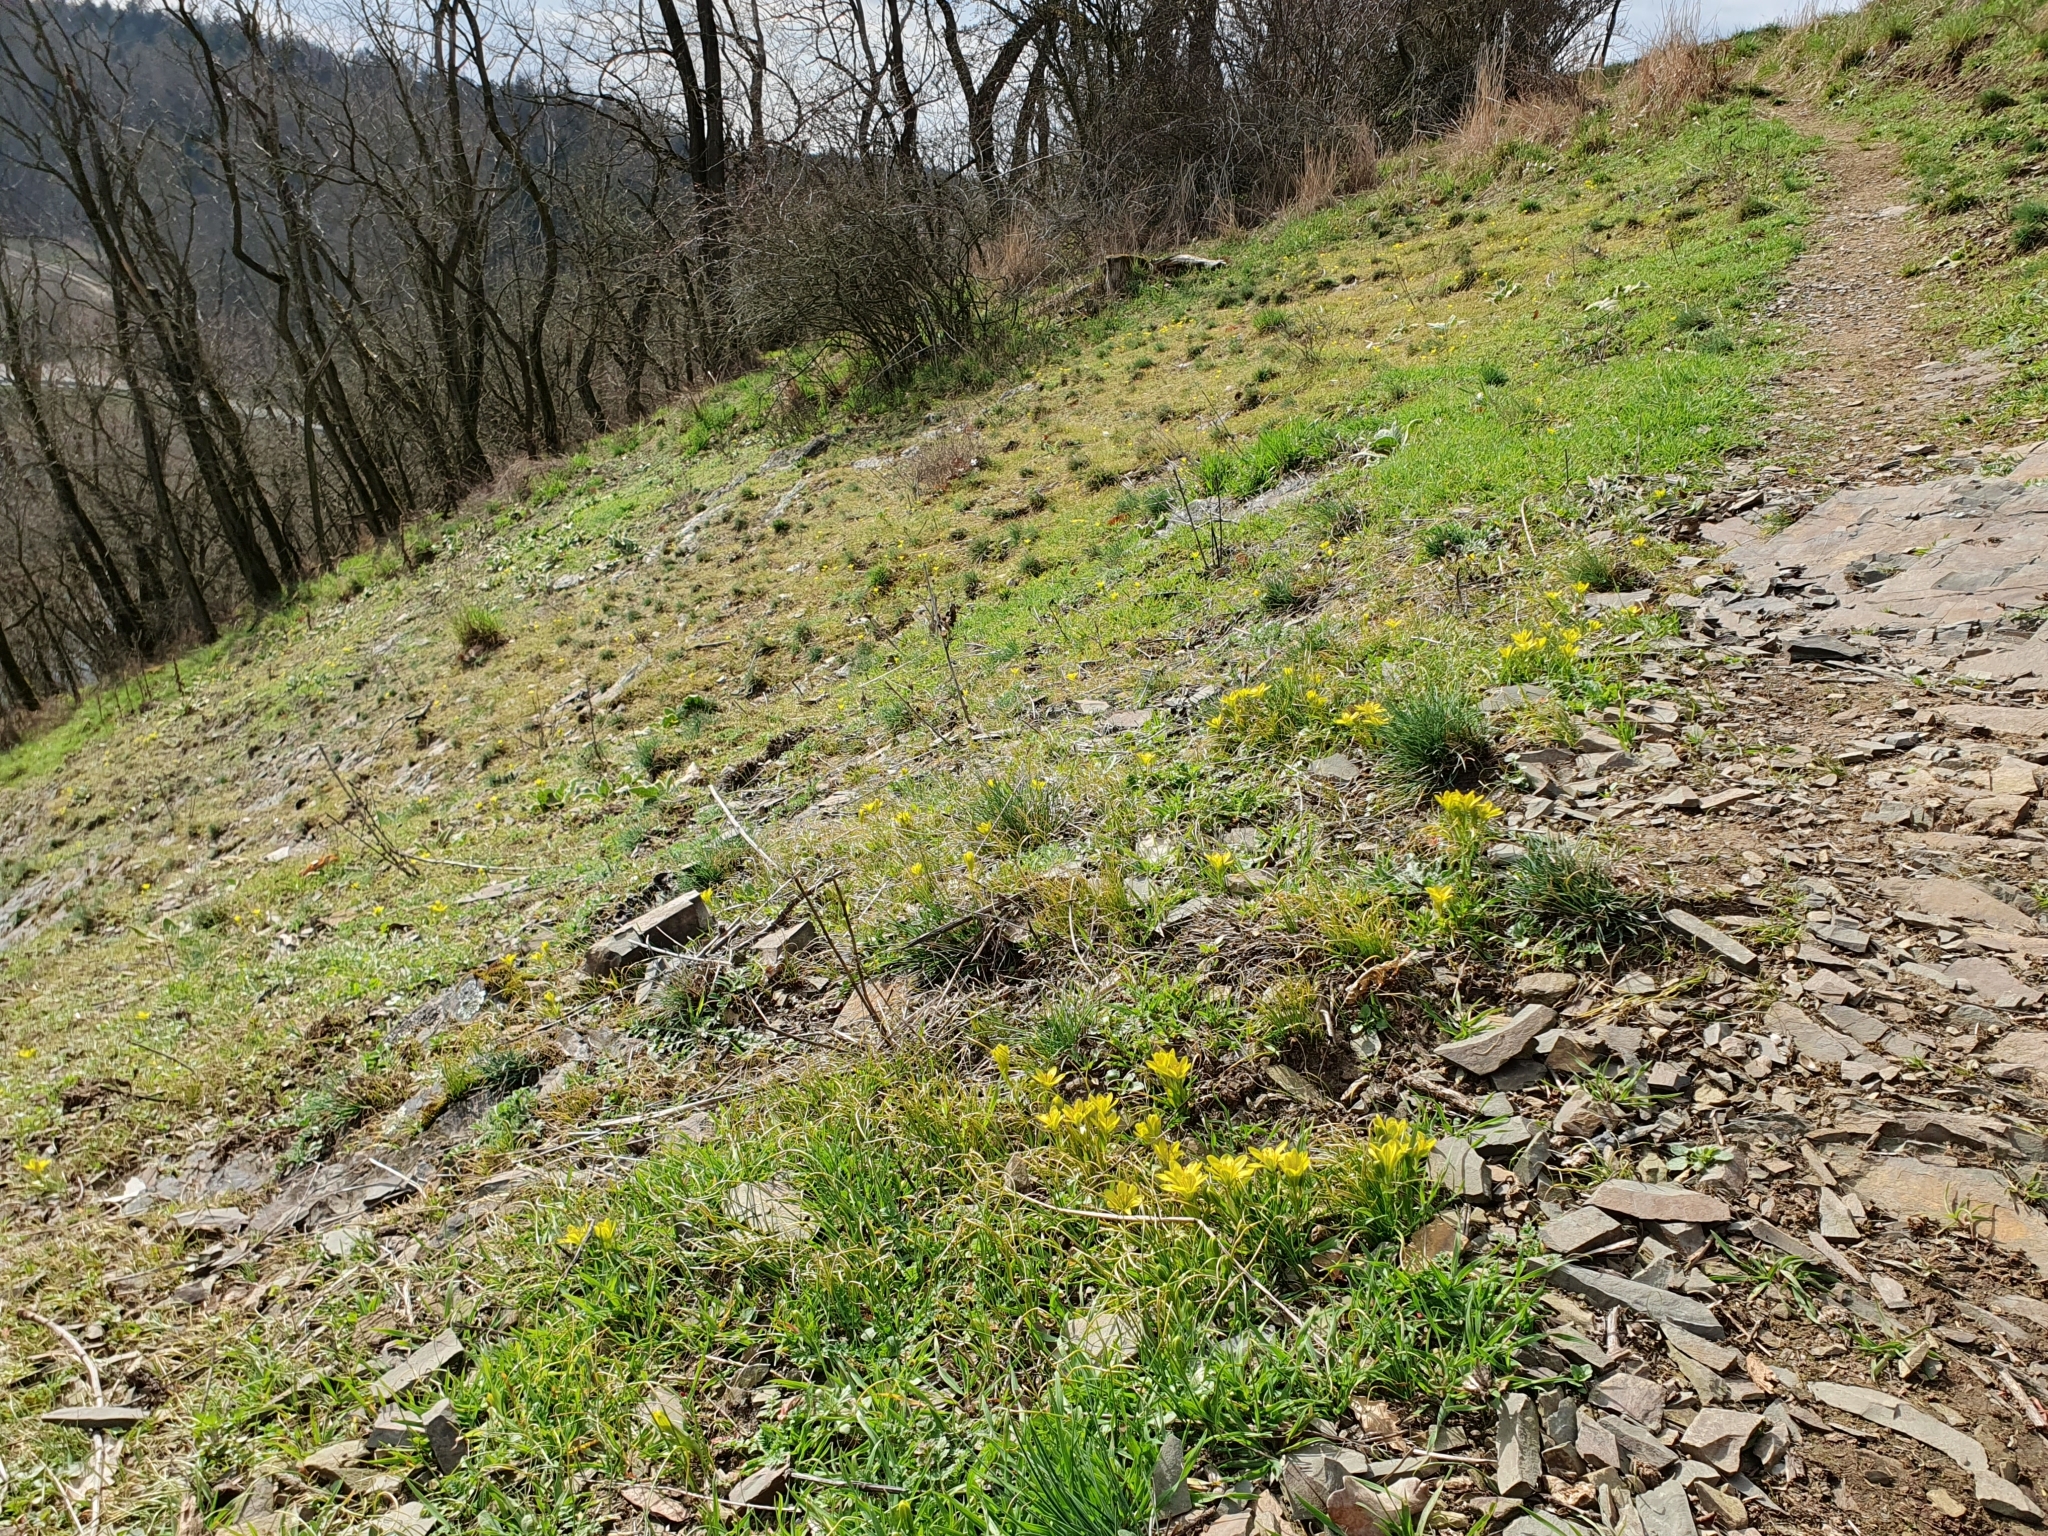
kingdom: Plantae
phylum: Tracheophyta
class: Liliopsida
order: Liliales
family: Liliaceae
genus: Gagea
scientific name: Gagea bohemica
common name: Early star-of-bethlehem
